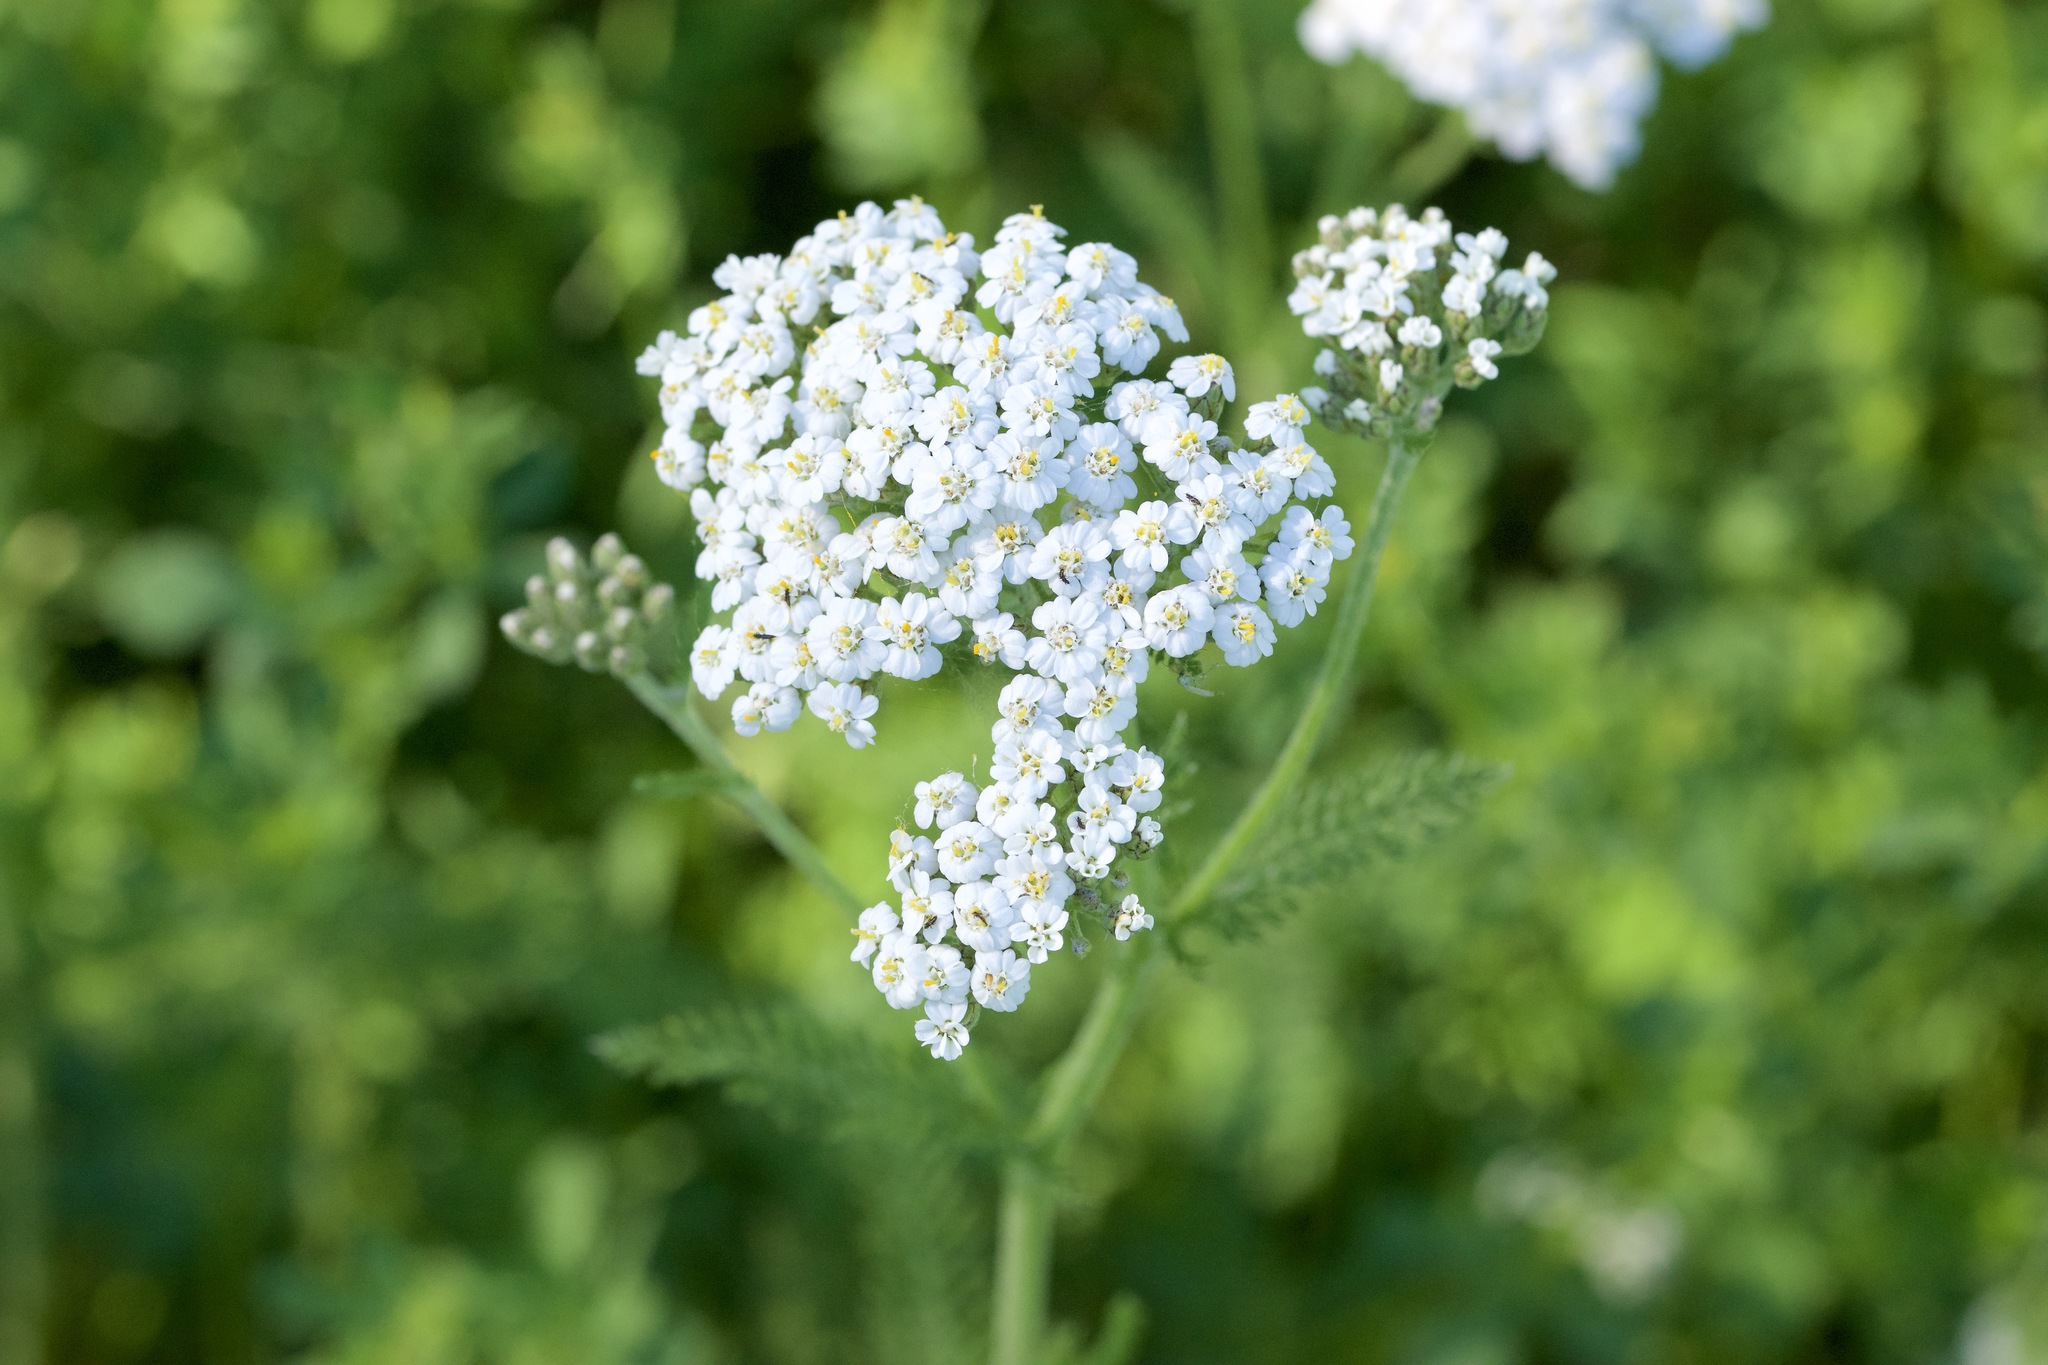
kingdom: Plantae
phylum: Tracheophyta
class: Magnoliopsida
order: Asterales
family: Asteraceae
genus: Achillea
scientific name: Achillea millefolium
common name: Yarrow
